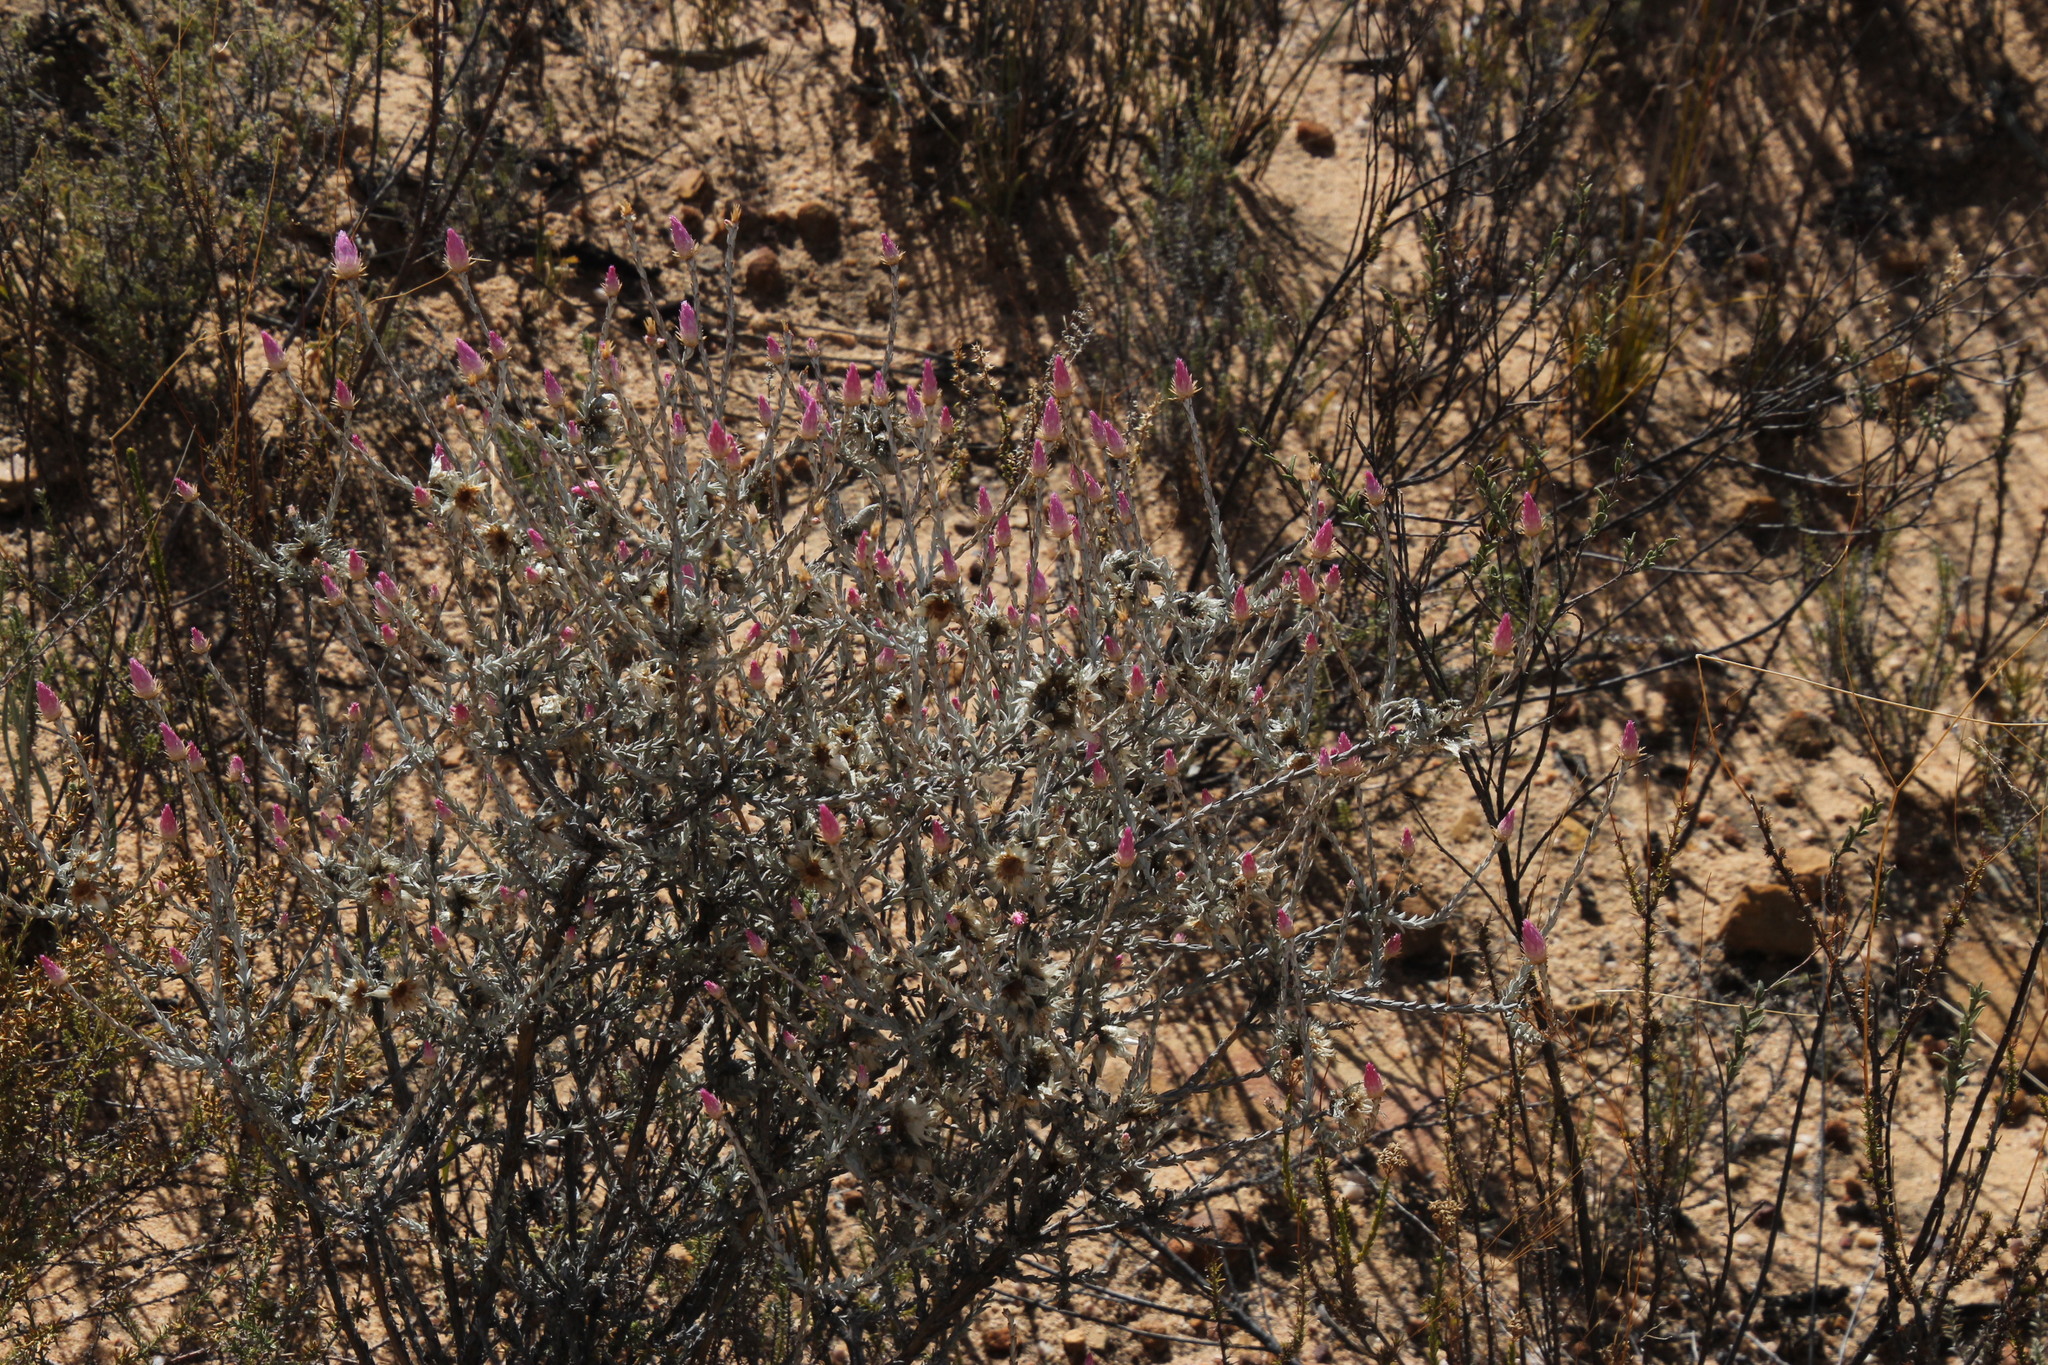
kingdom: Plantae
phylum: Tracheophyta
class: Magnoliopsida
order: Asterales
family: Asteraceae
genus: Syncarpha
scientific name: Syncarpha canescens
